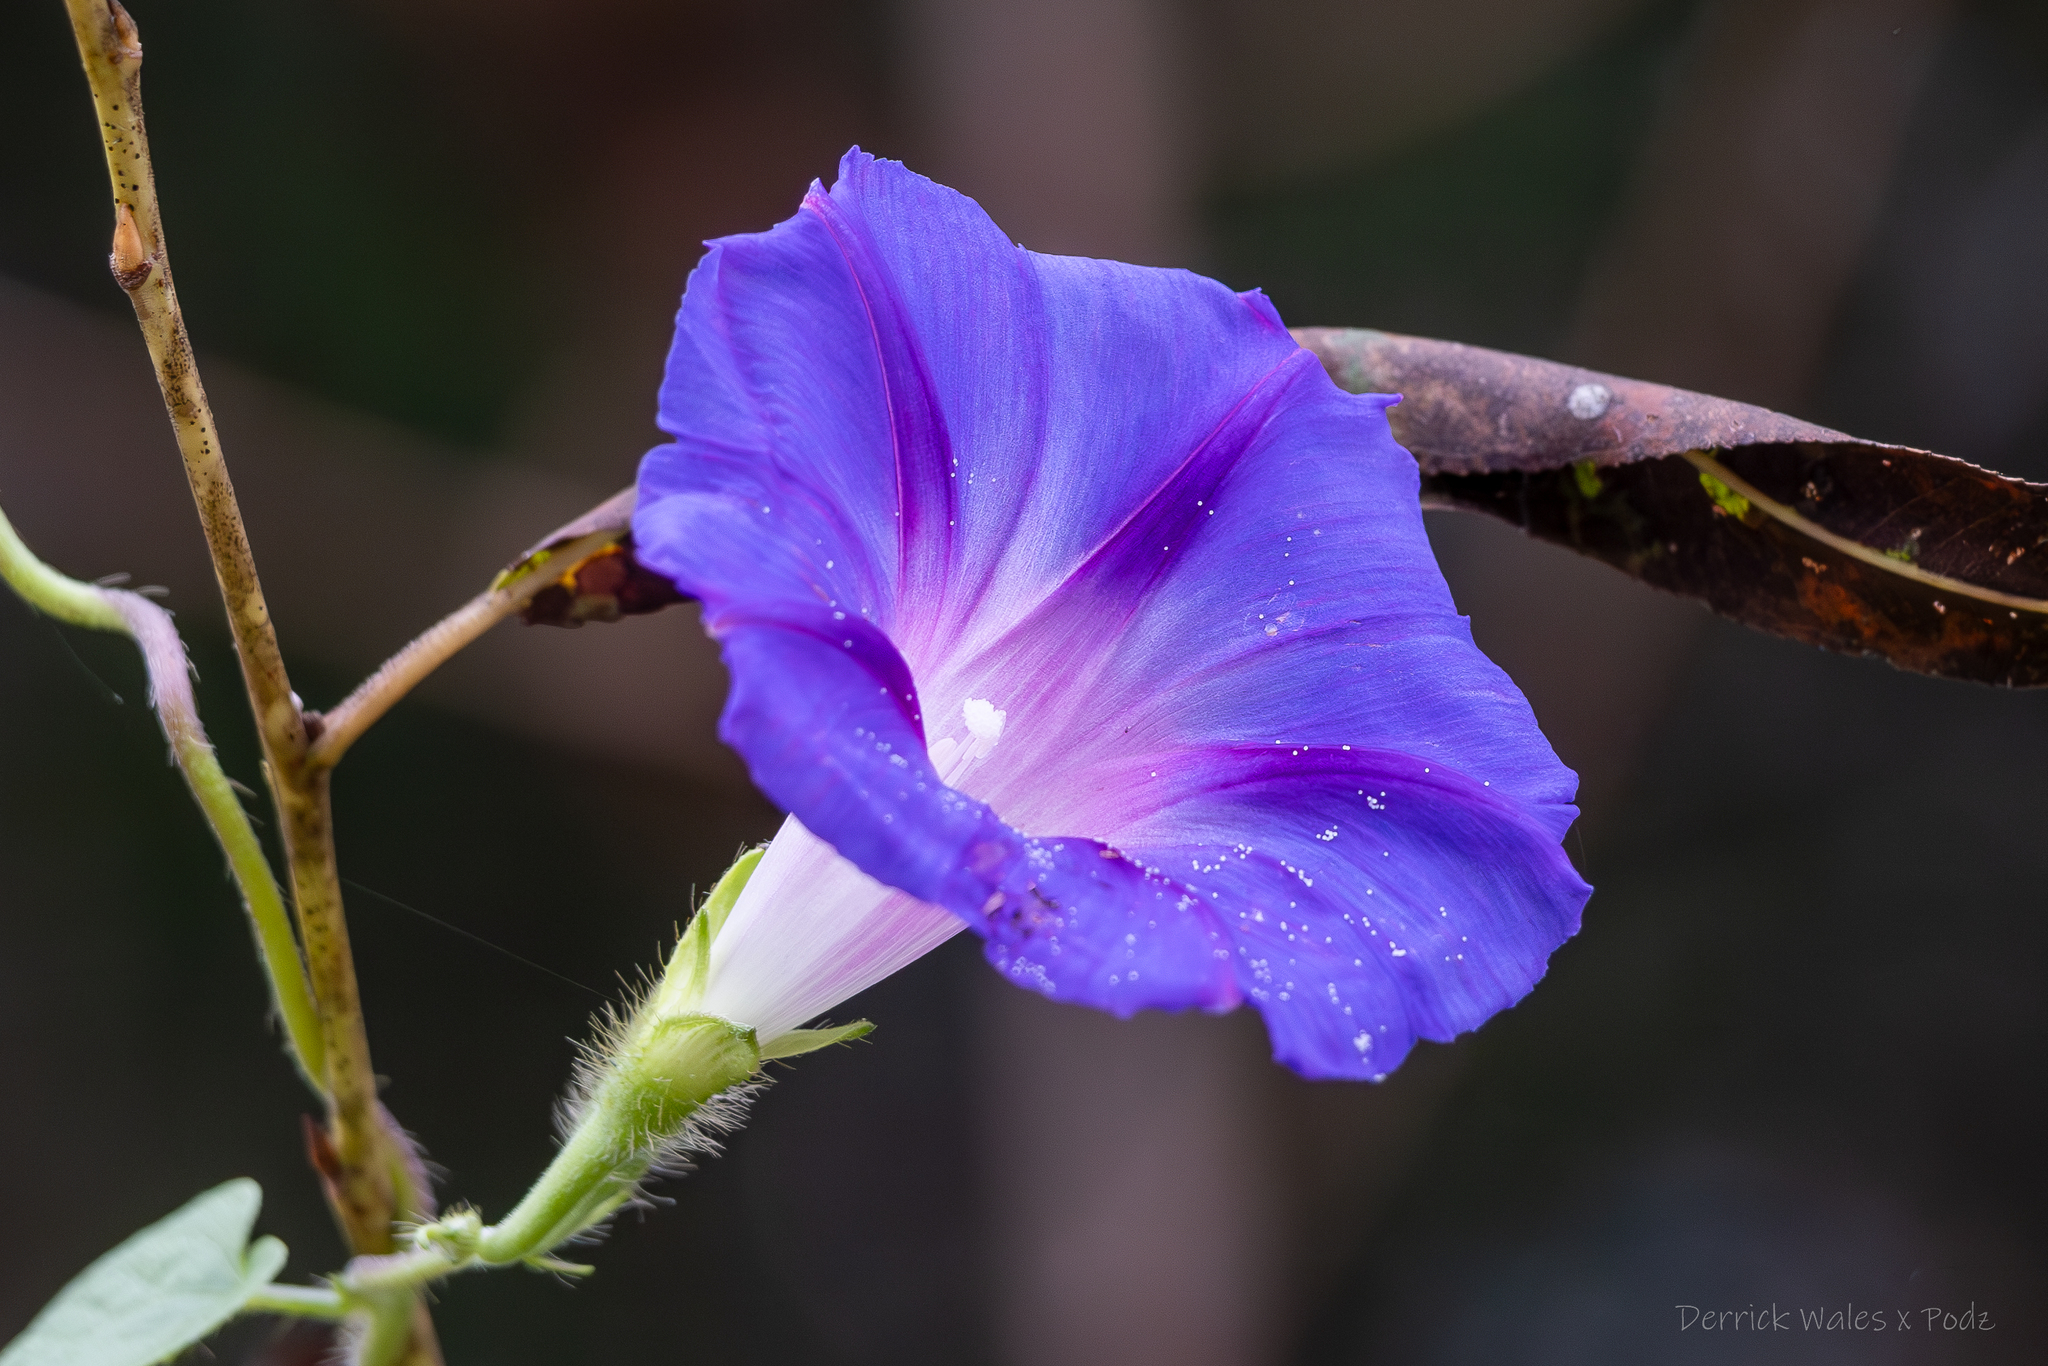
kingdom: Plantae
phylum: Tracheophyta
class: Magnoliopsida
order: Solanales
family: Convolvulaceae
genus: Ipomoea
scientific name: Ipomoea purpurea
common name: Common morning-glory
